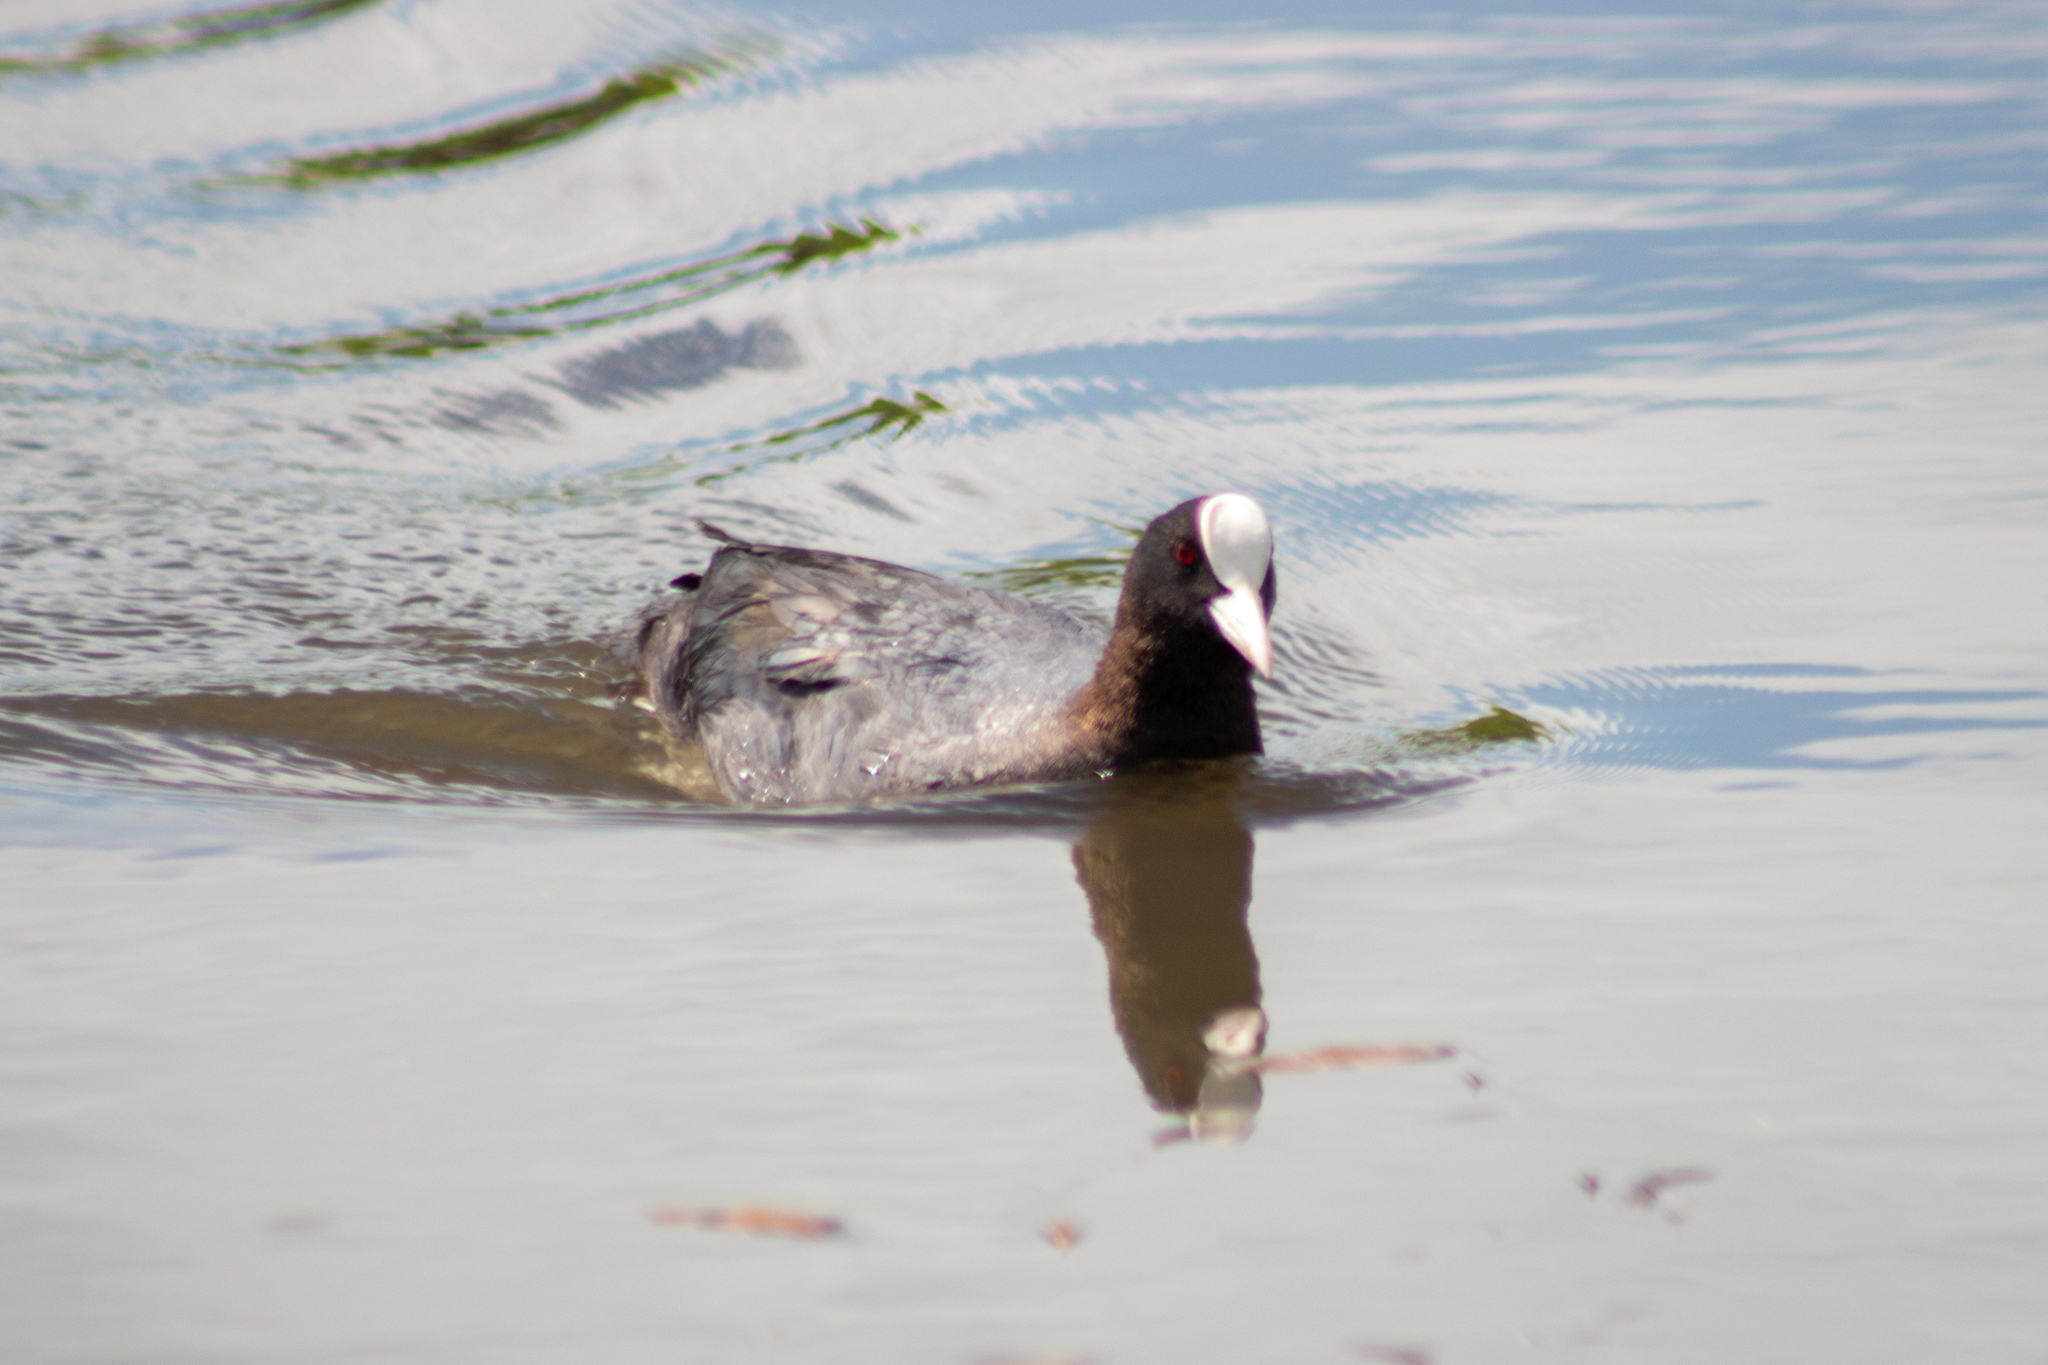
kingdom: Animalia
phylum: Chordata
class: Aves
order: Gruiformes
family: Rallidae
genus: Fulica
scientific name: Fulica atra
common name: Eurasian coot
